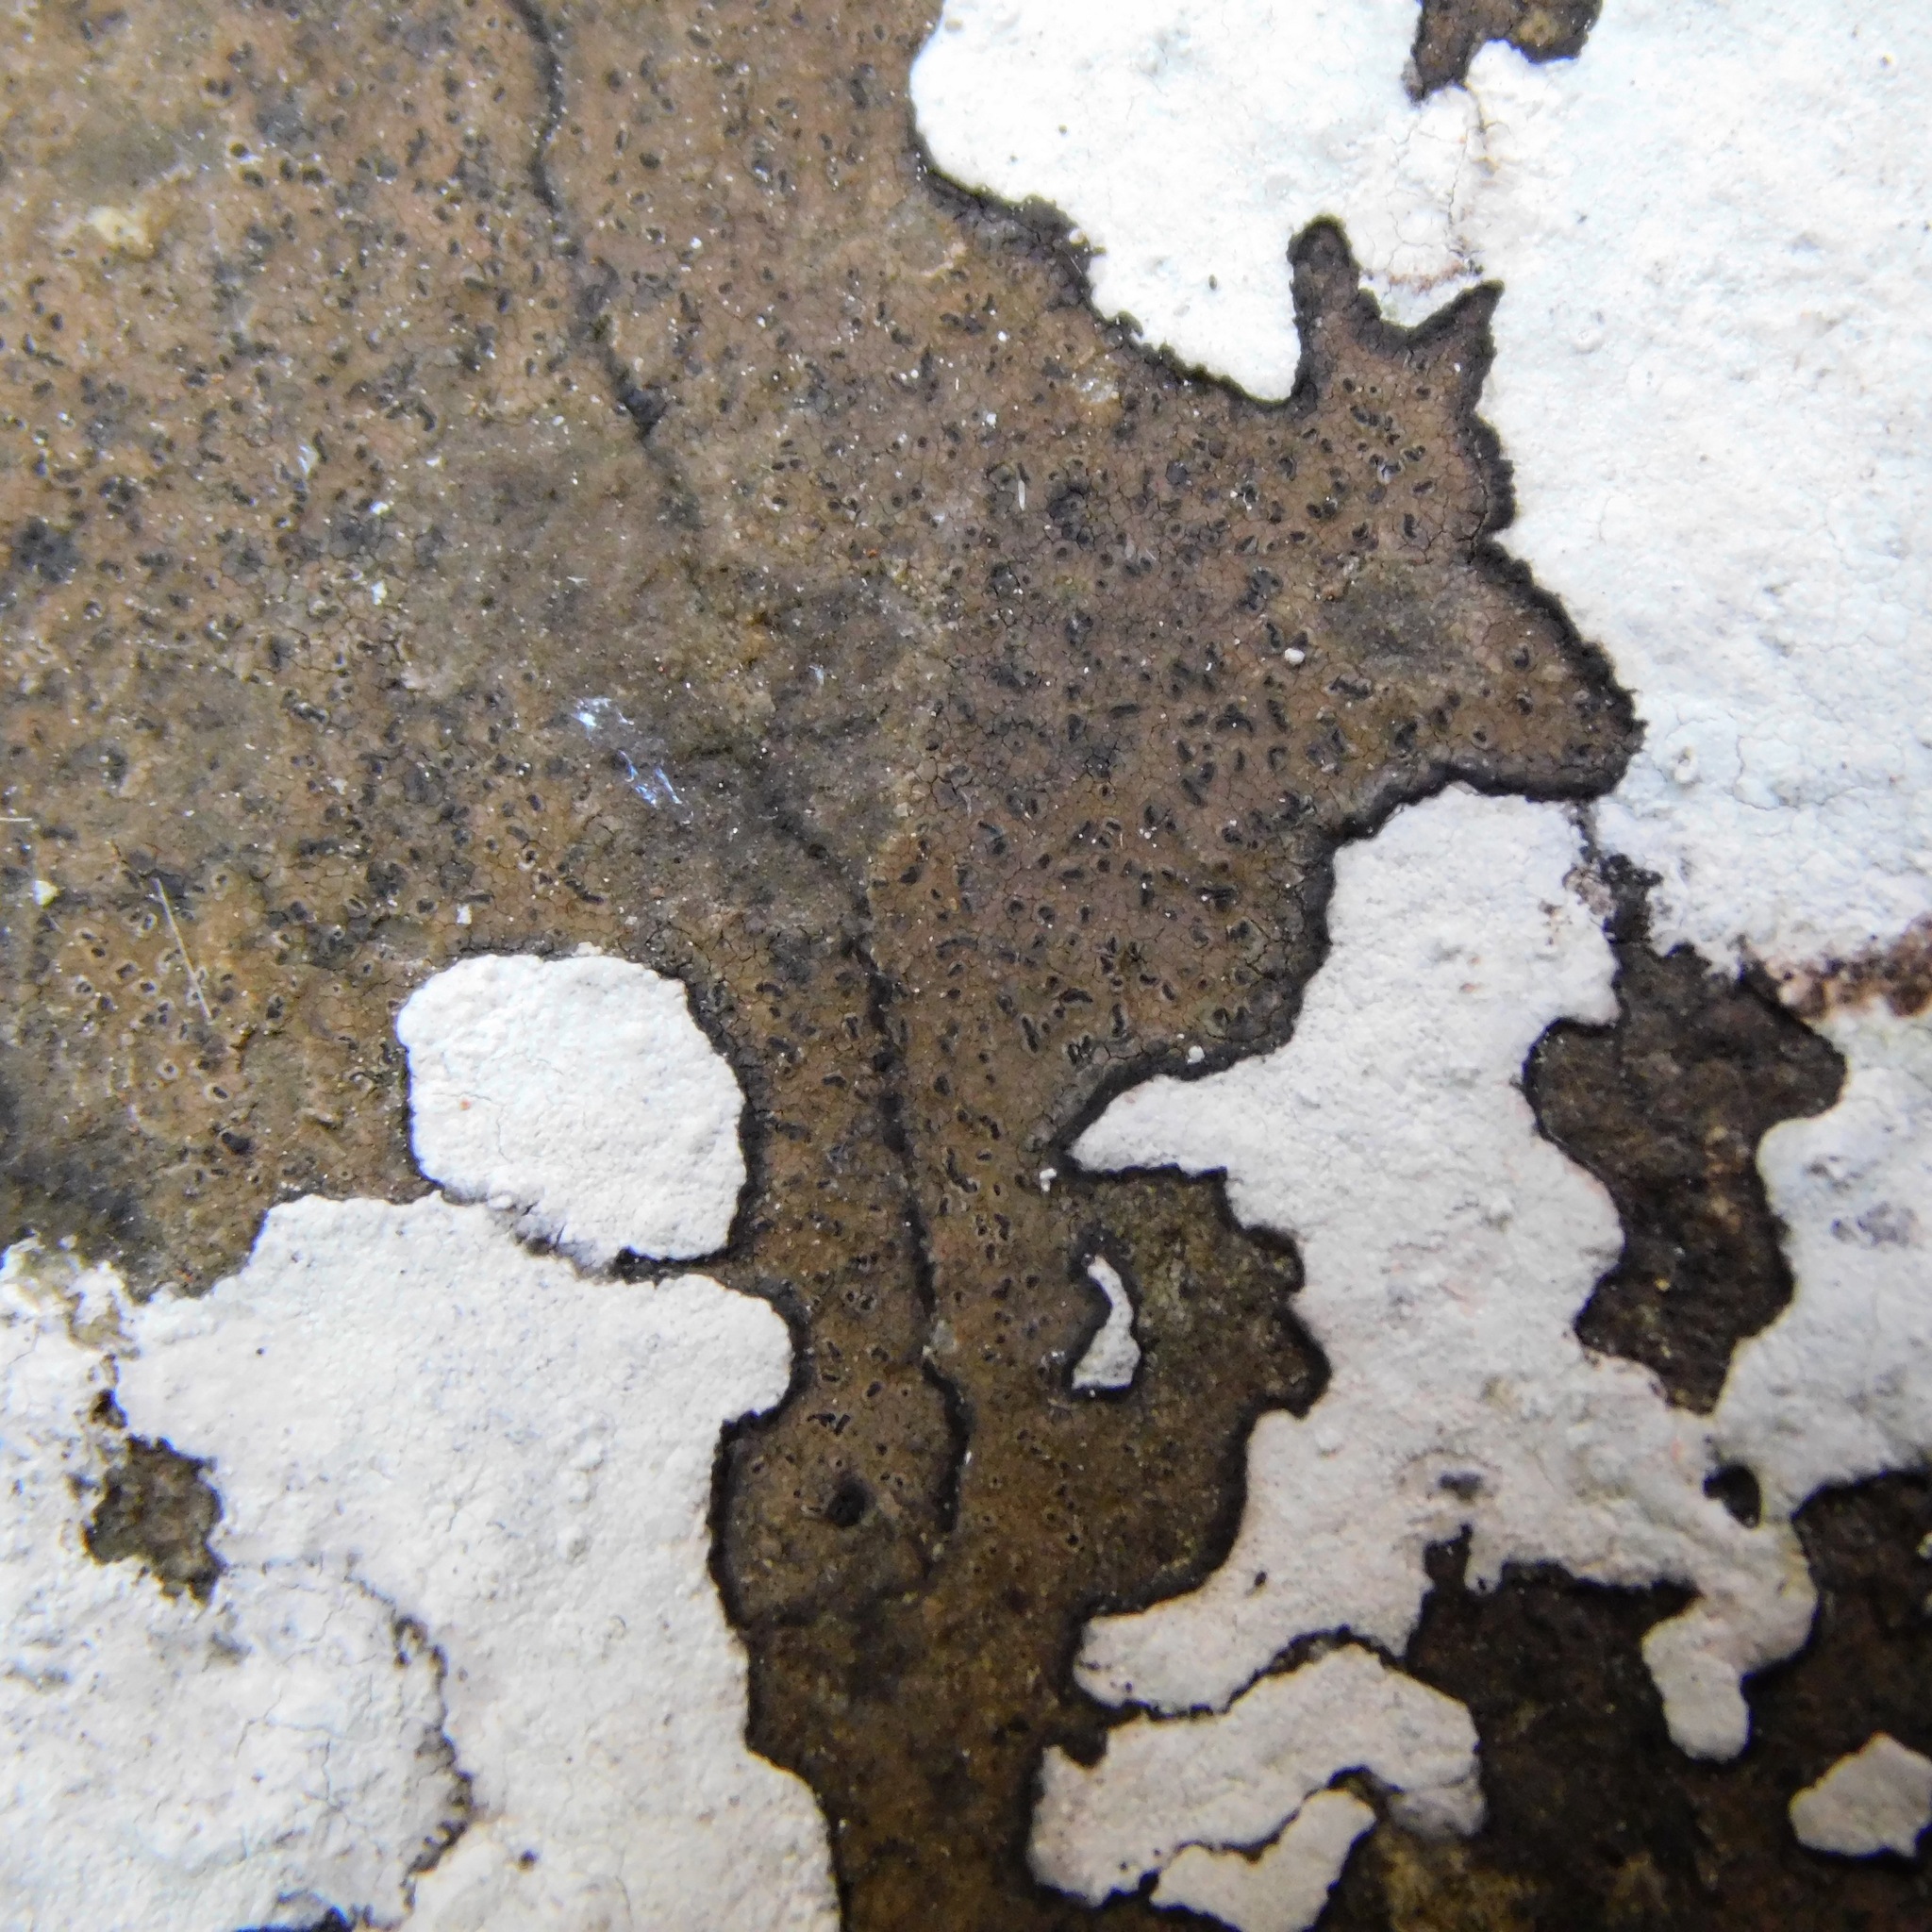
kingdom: Fungi
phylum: Ascomycota
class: Arthoniomycetes
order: Arthoniales
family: Roccellaceae
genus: Enterographa
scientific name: Enterographa hutchinsiae
